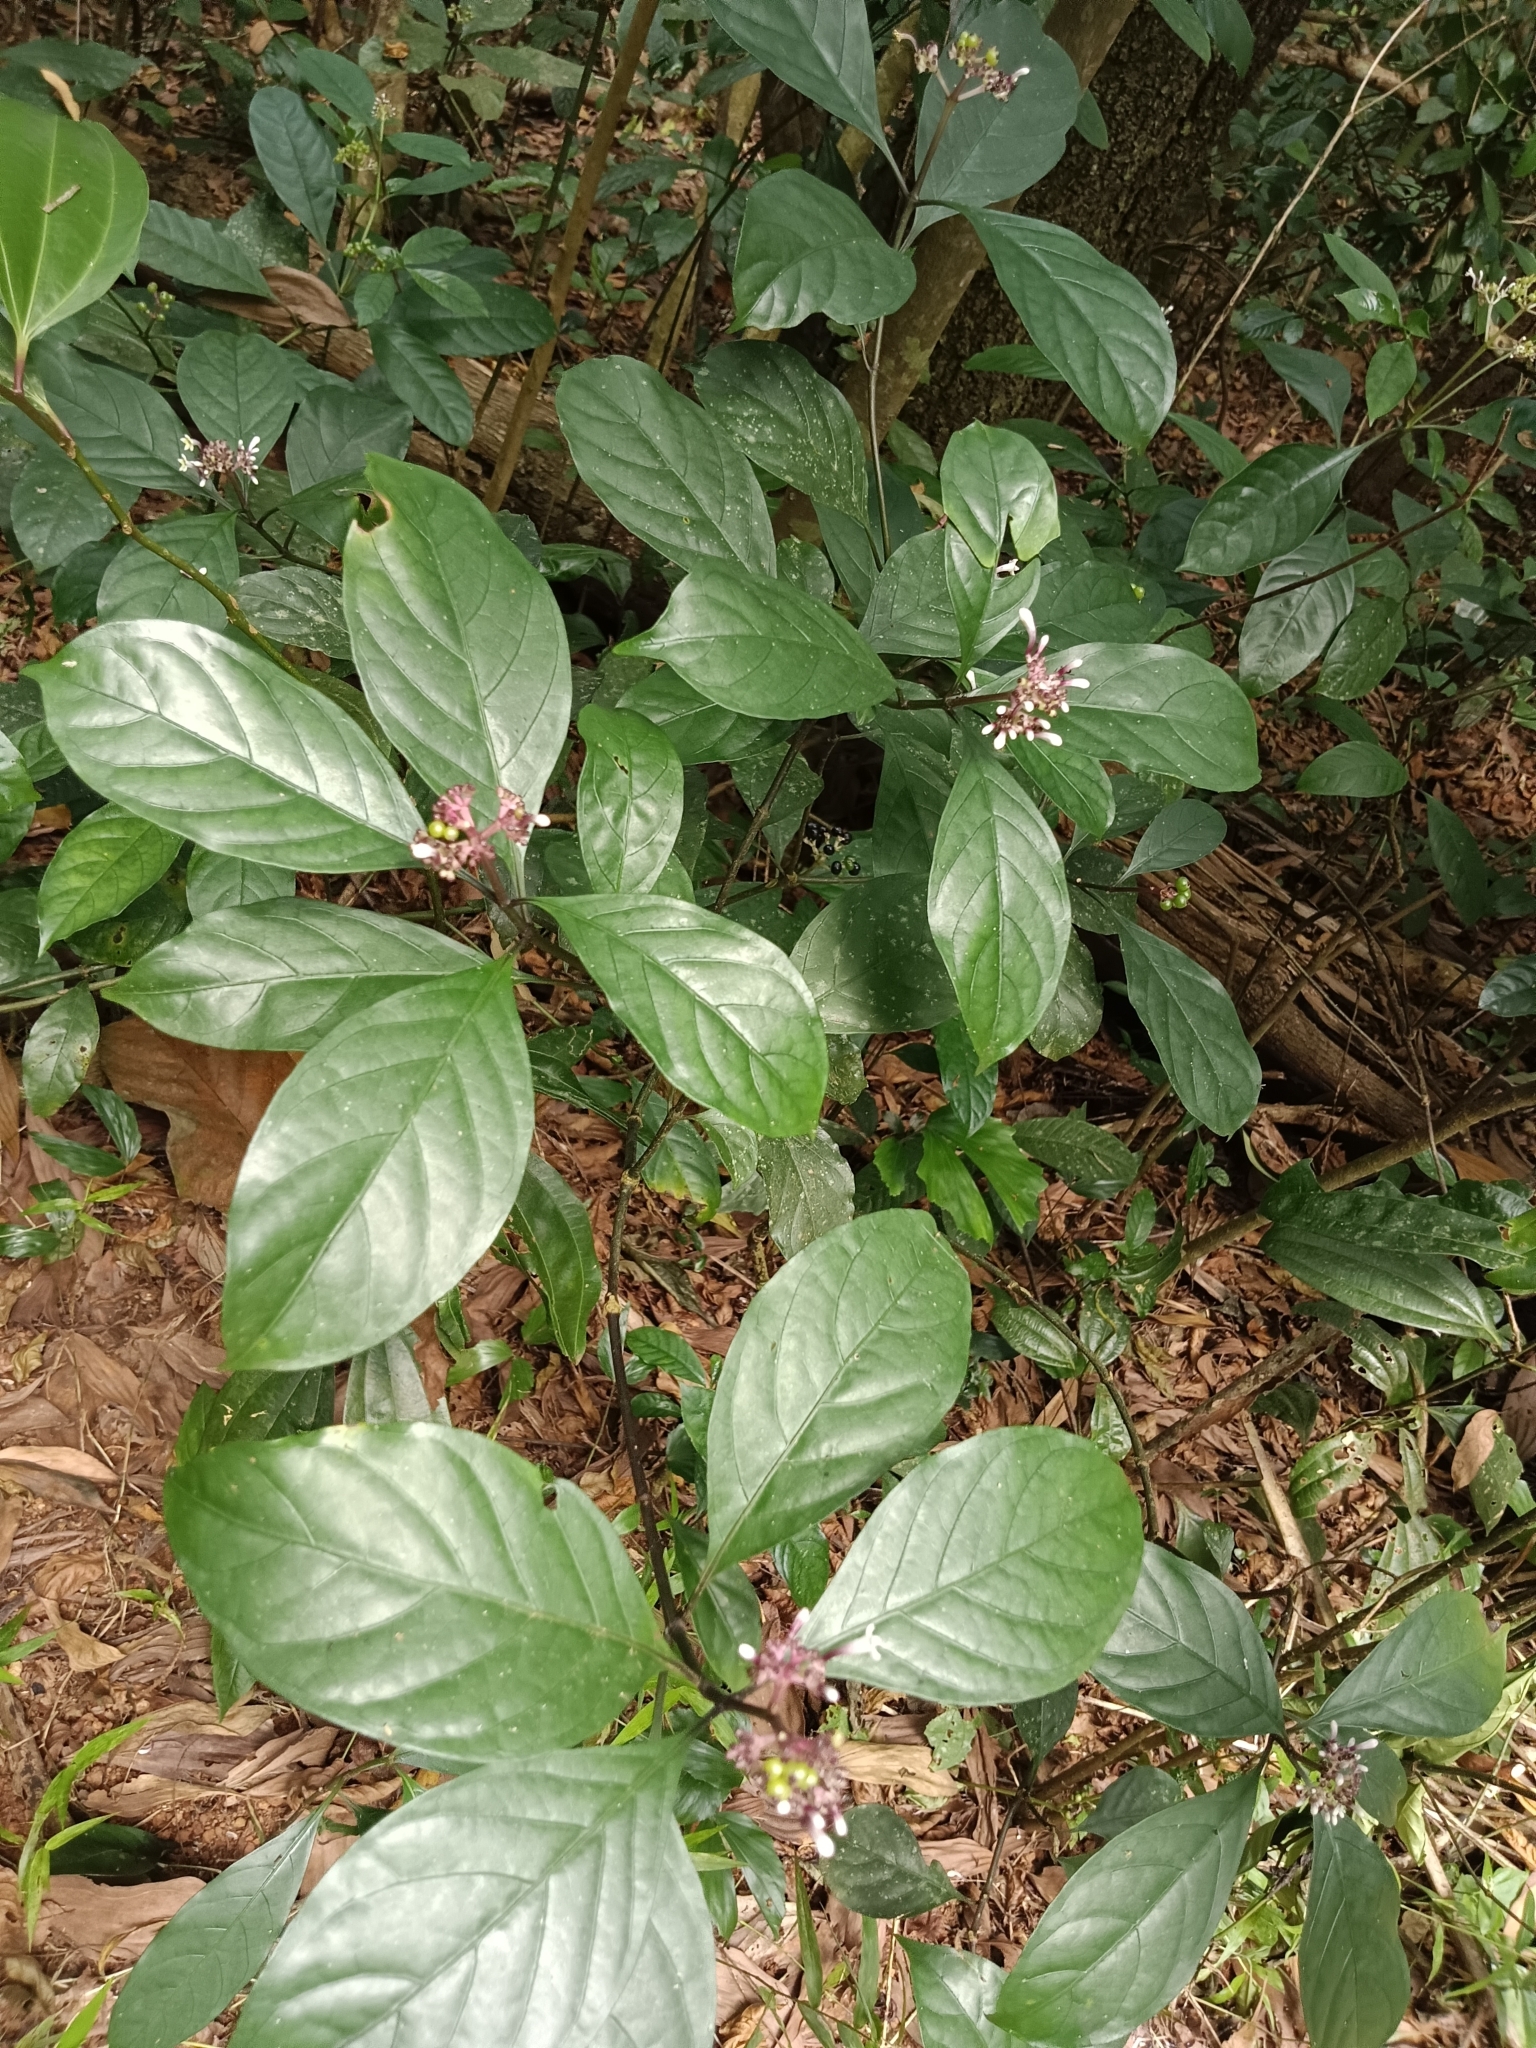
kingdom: Plantae
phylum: Tracheophyta
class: Magnoliopsida
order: Gentianales
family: Rubiaceae
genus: Chassalia
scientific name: Chassalia curviflora
